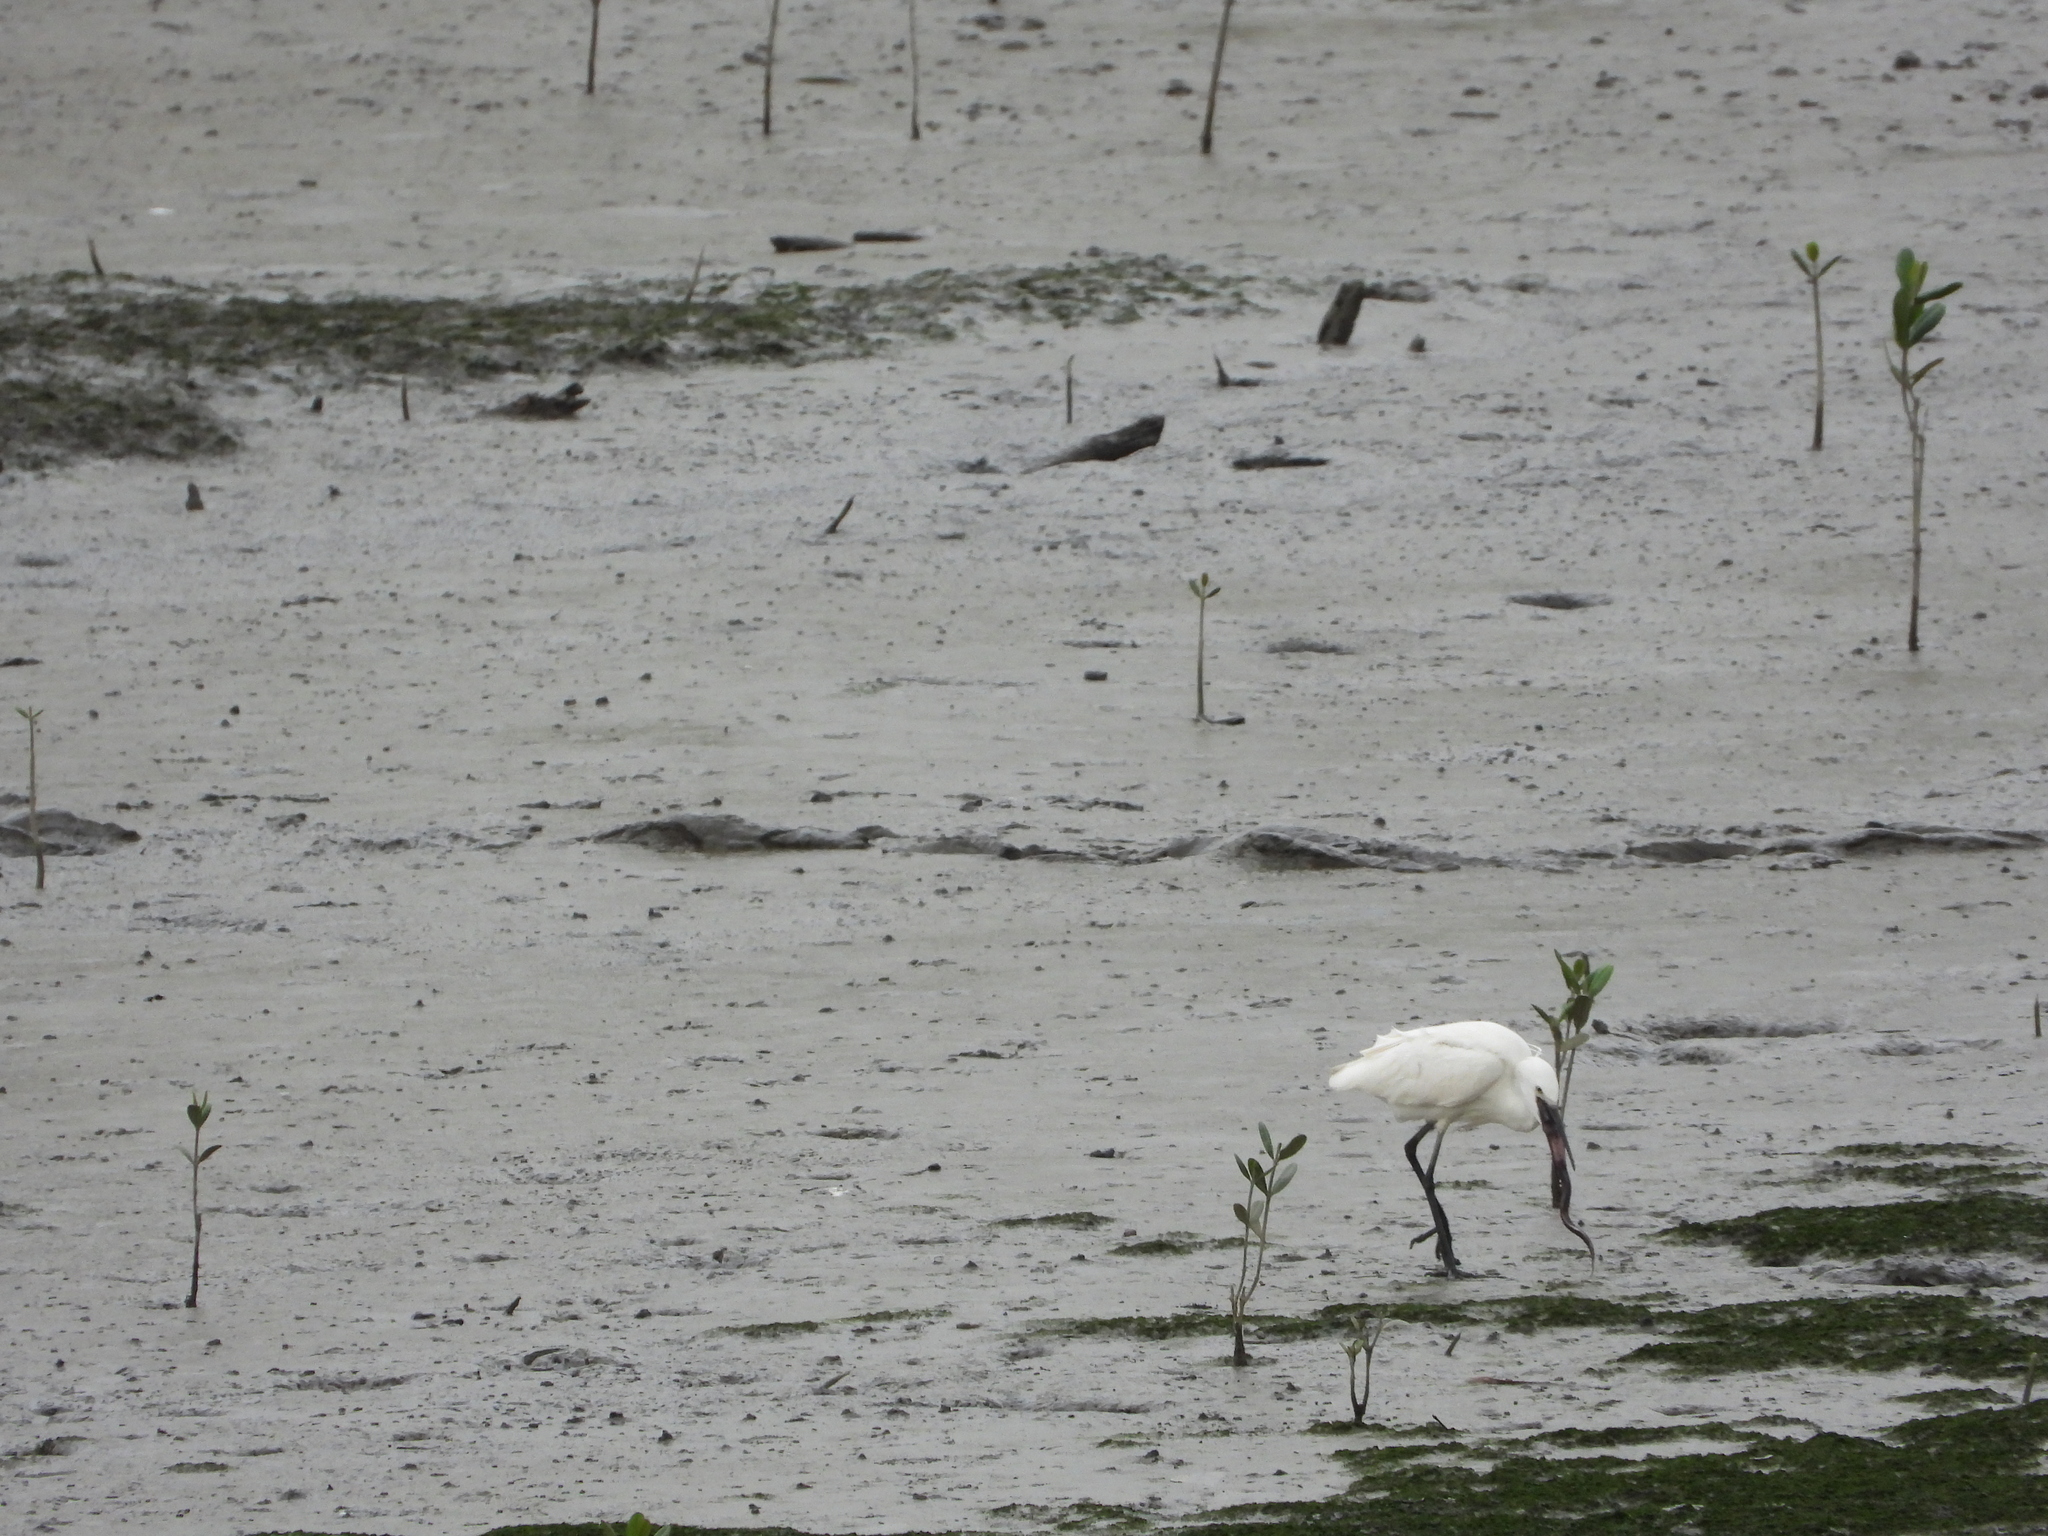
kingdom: Animalia
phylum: Chordata
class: Aves
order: Pelecaniformes
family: Ardeidae
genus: Egretta
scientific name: Egretta garzetta
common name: Little egret
